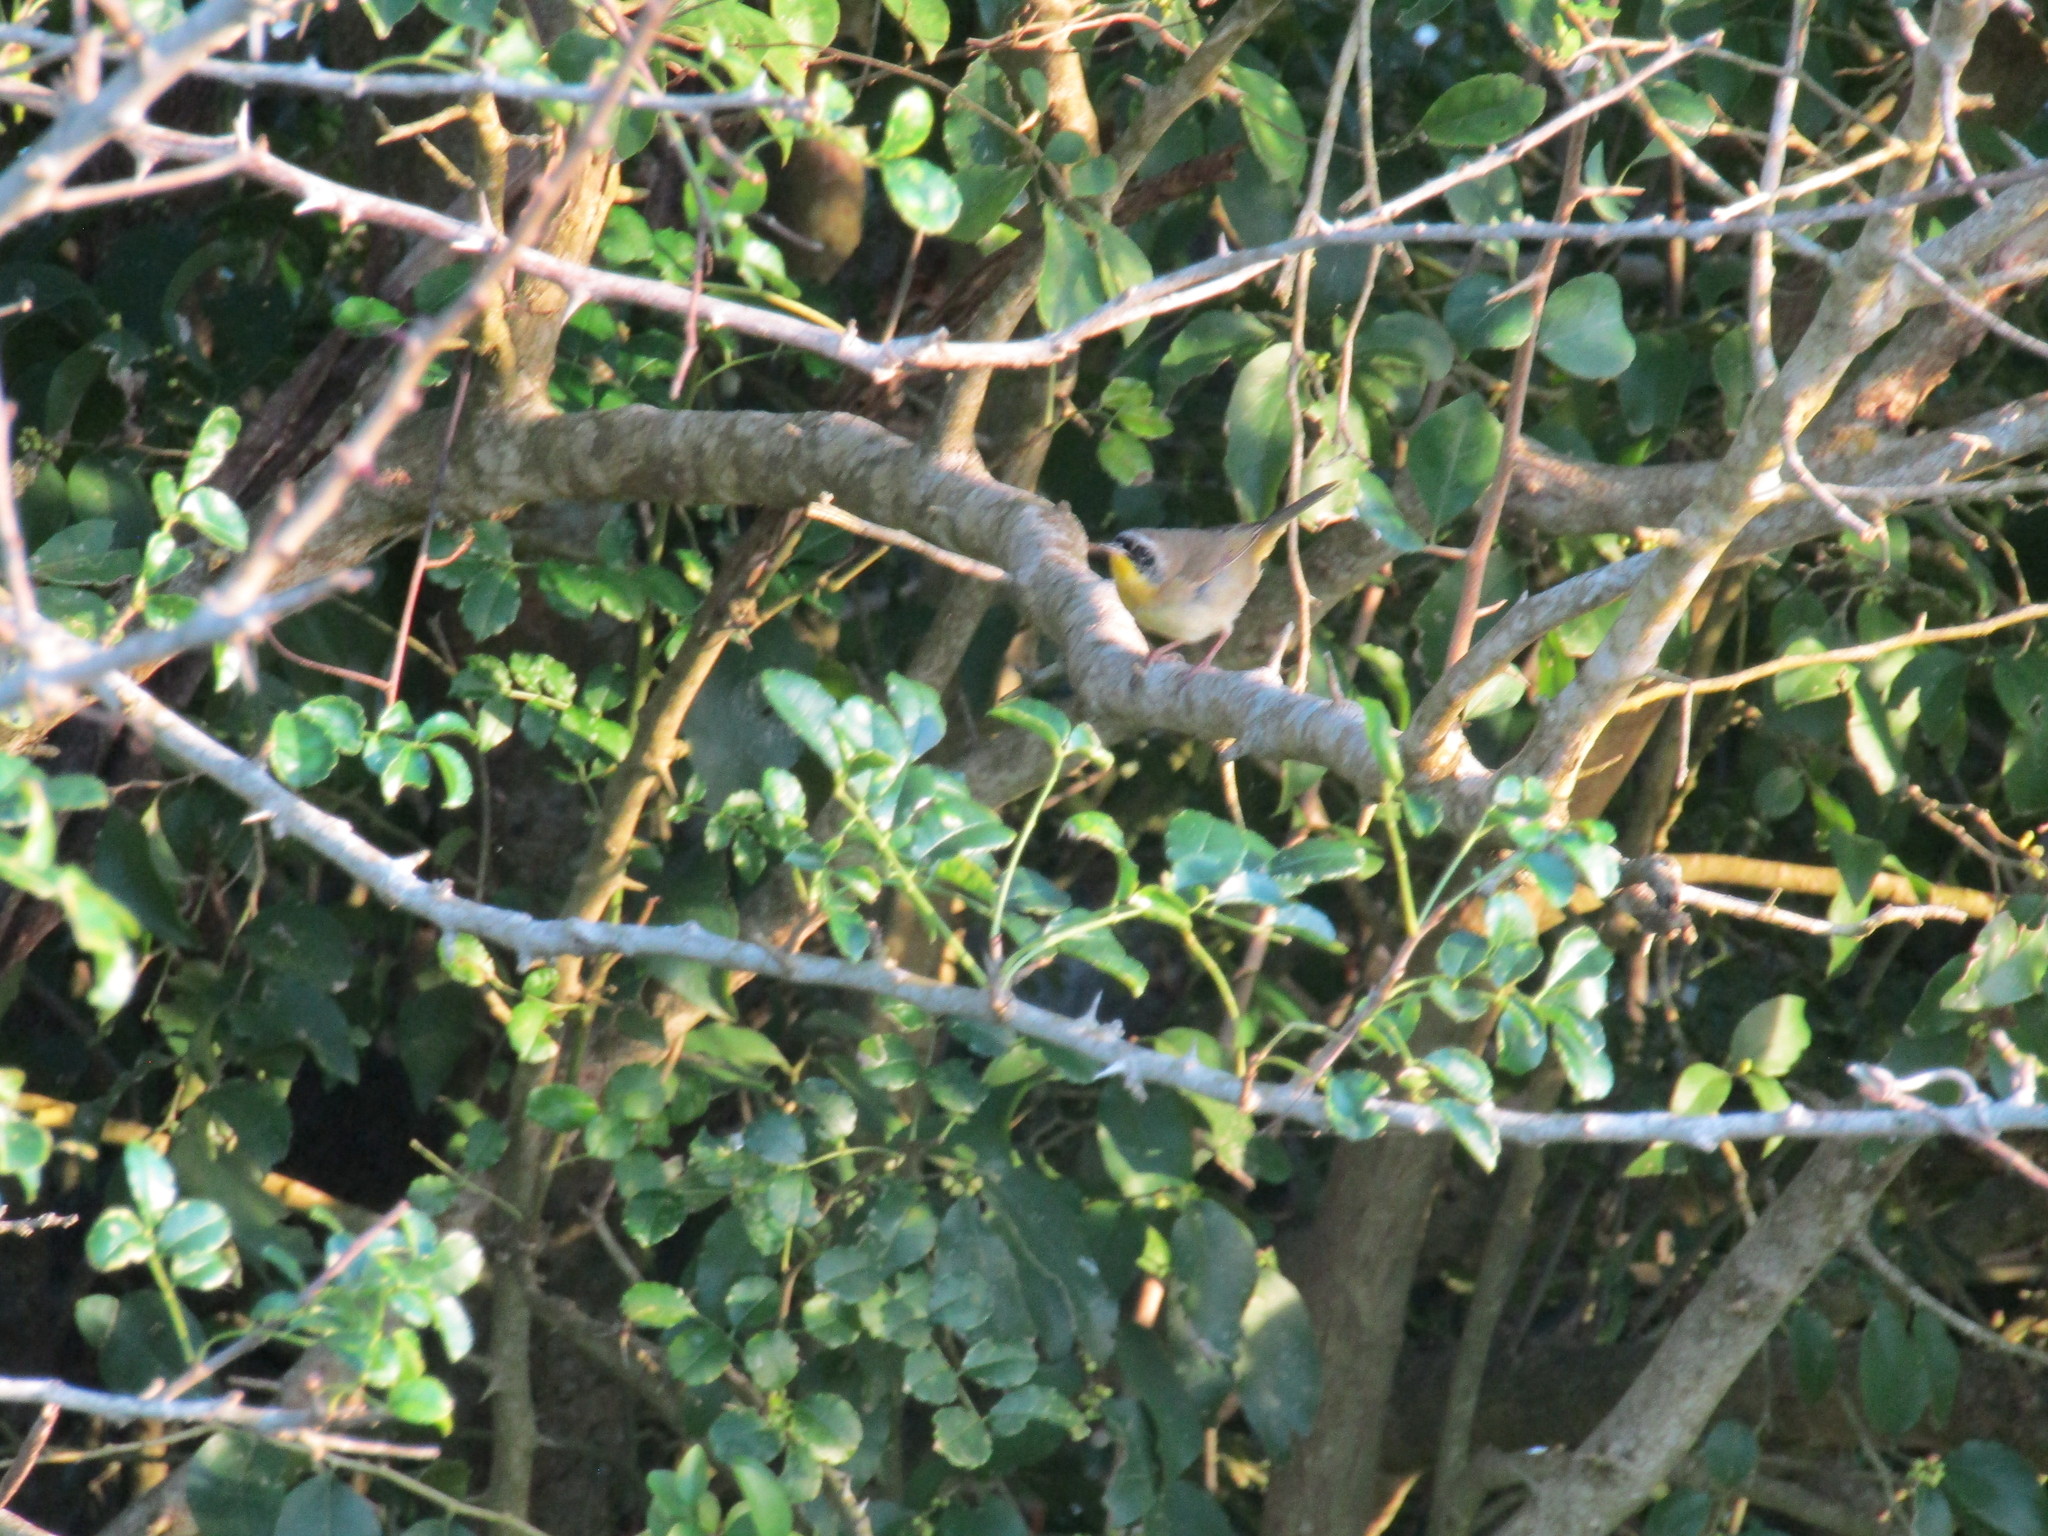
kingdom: Animalia
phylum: Chordata
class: Aves
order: Passeriformes
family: Parulidae
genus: Geothlypis
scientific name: Geothlypis trichas
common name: Common yellowthroat
